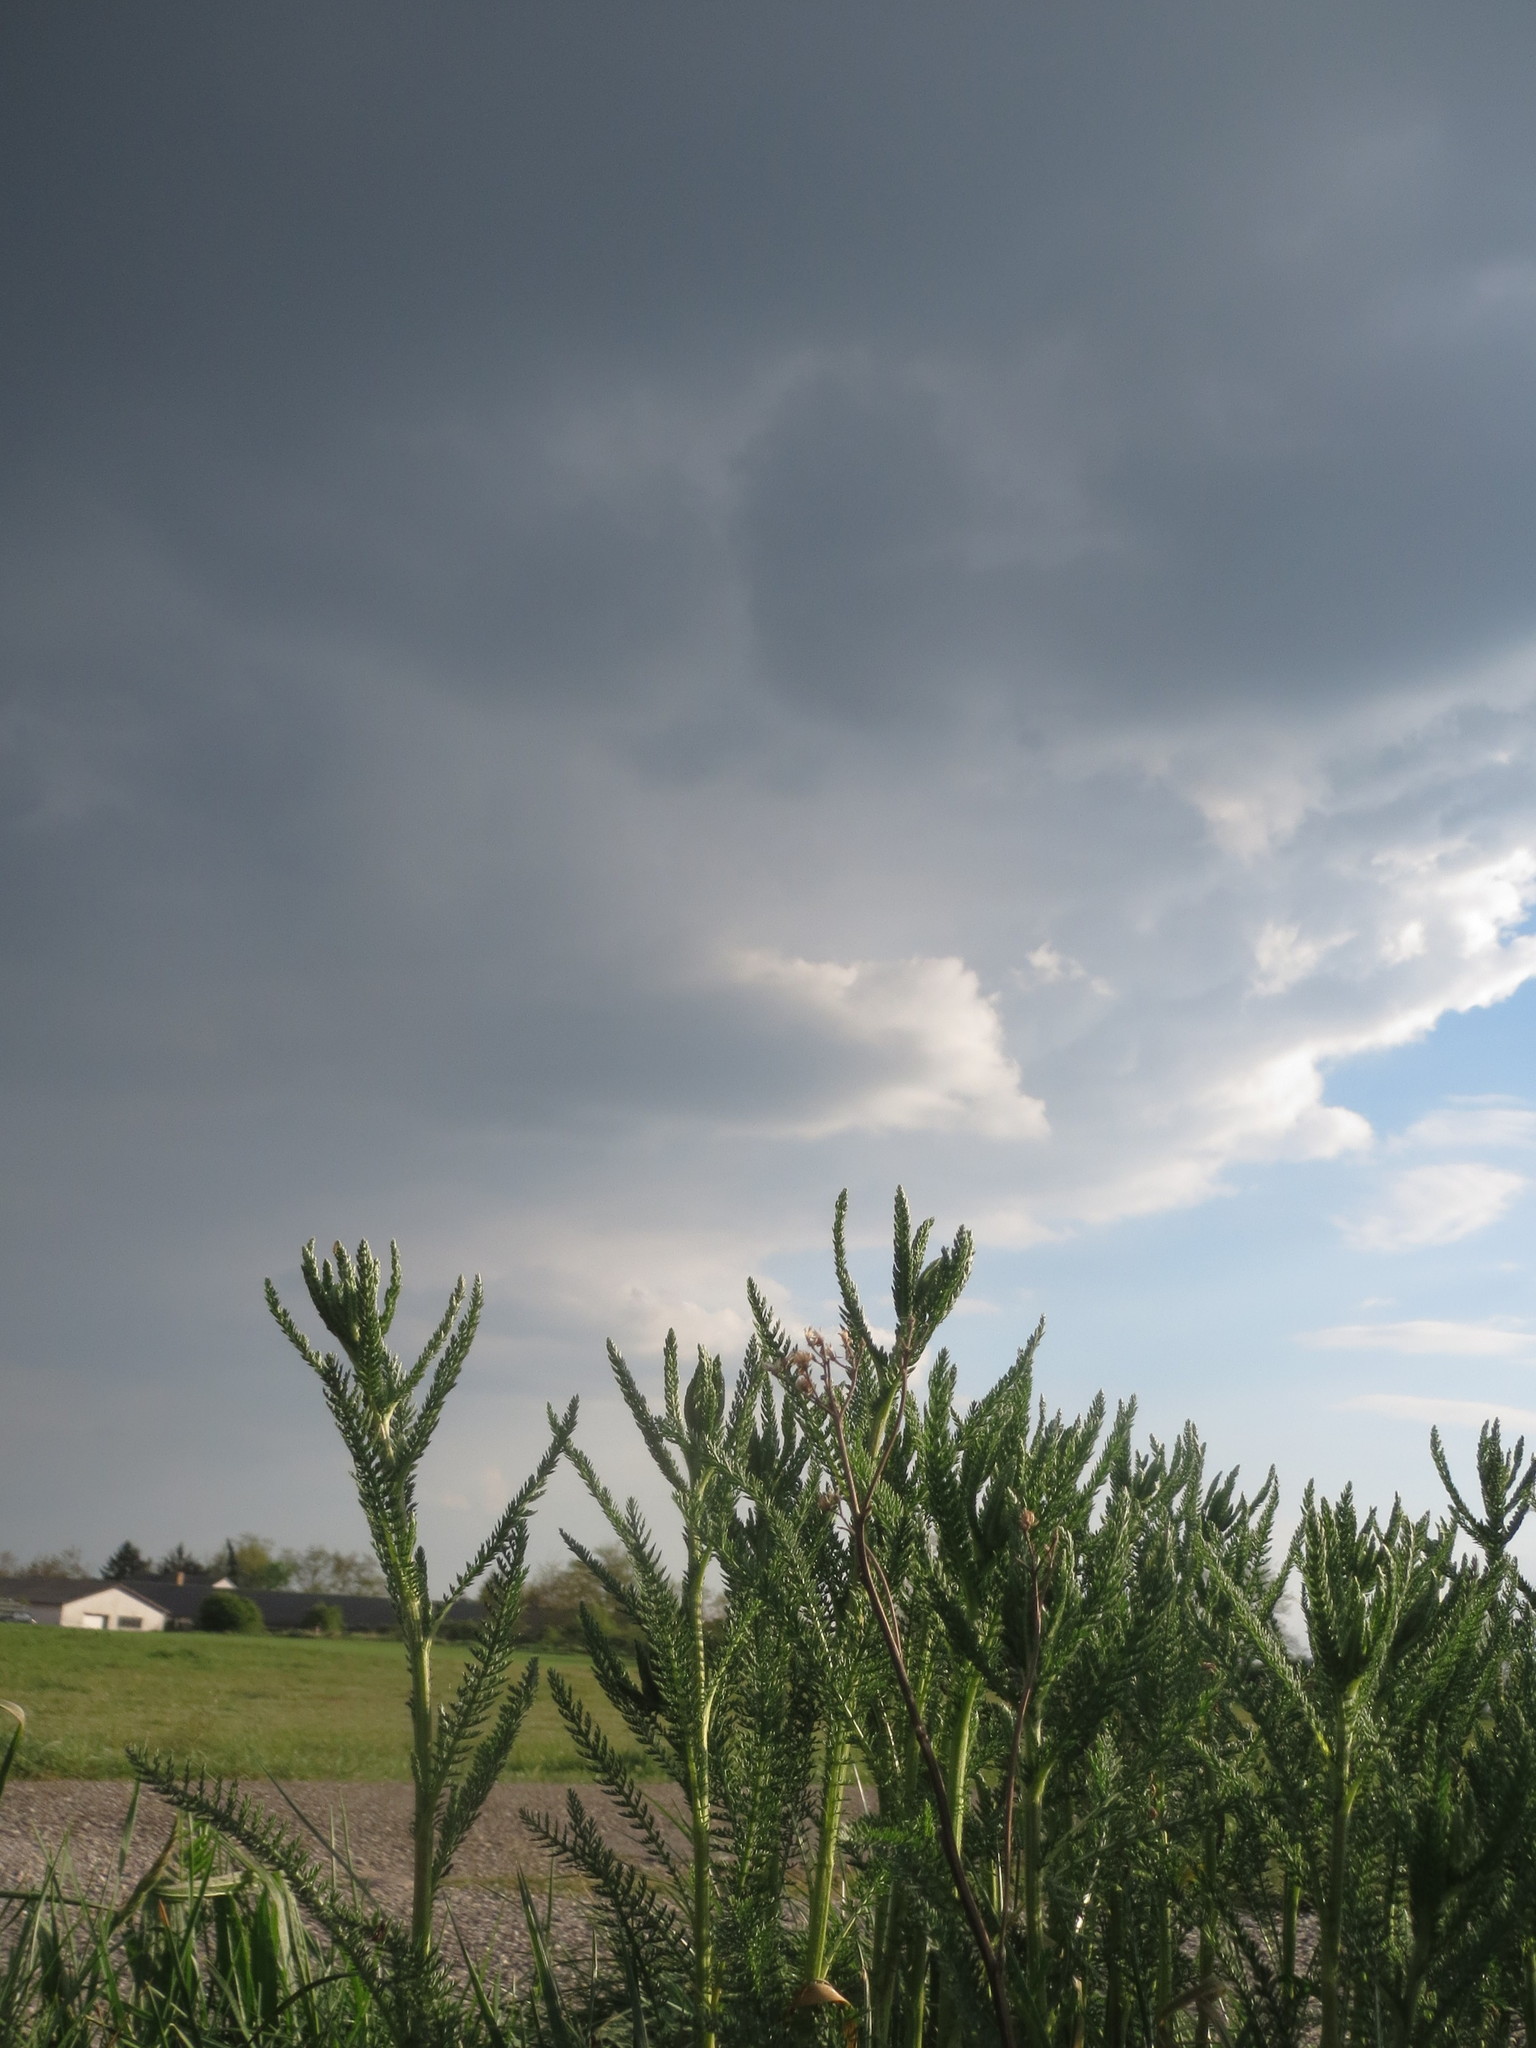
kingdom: Plantae
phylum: Tracheophyta
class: Magnoliopsida
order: Asterales
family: Asteraceae
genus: Achillea
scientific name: Achillea millefolium
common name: Yarrow
